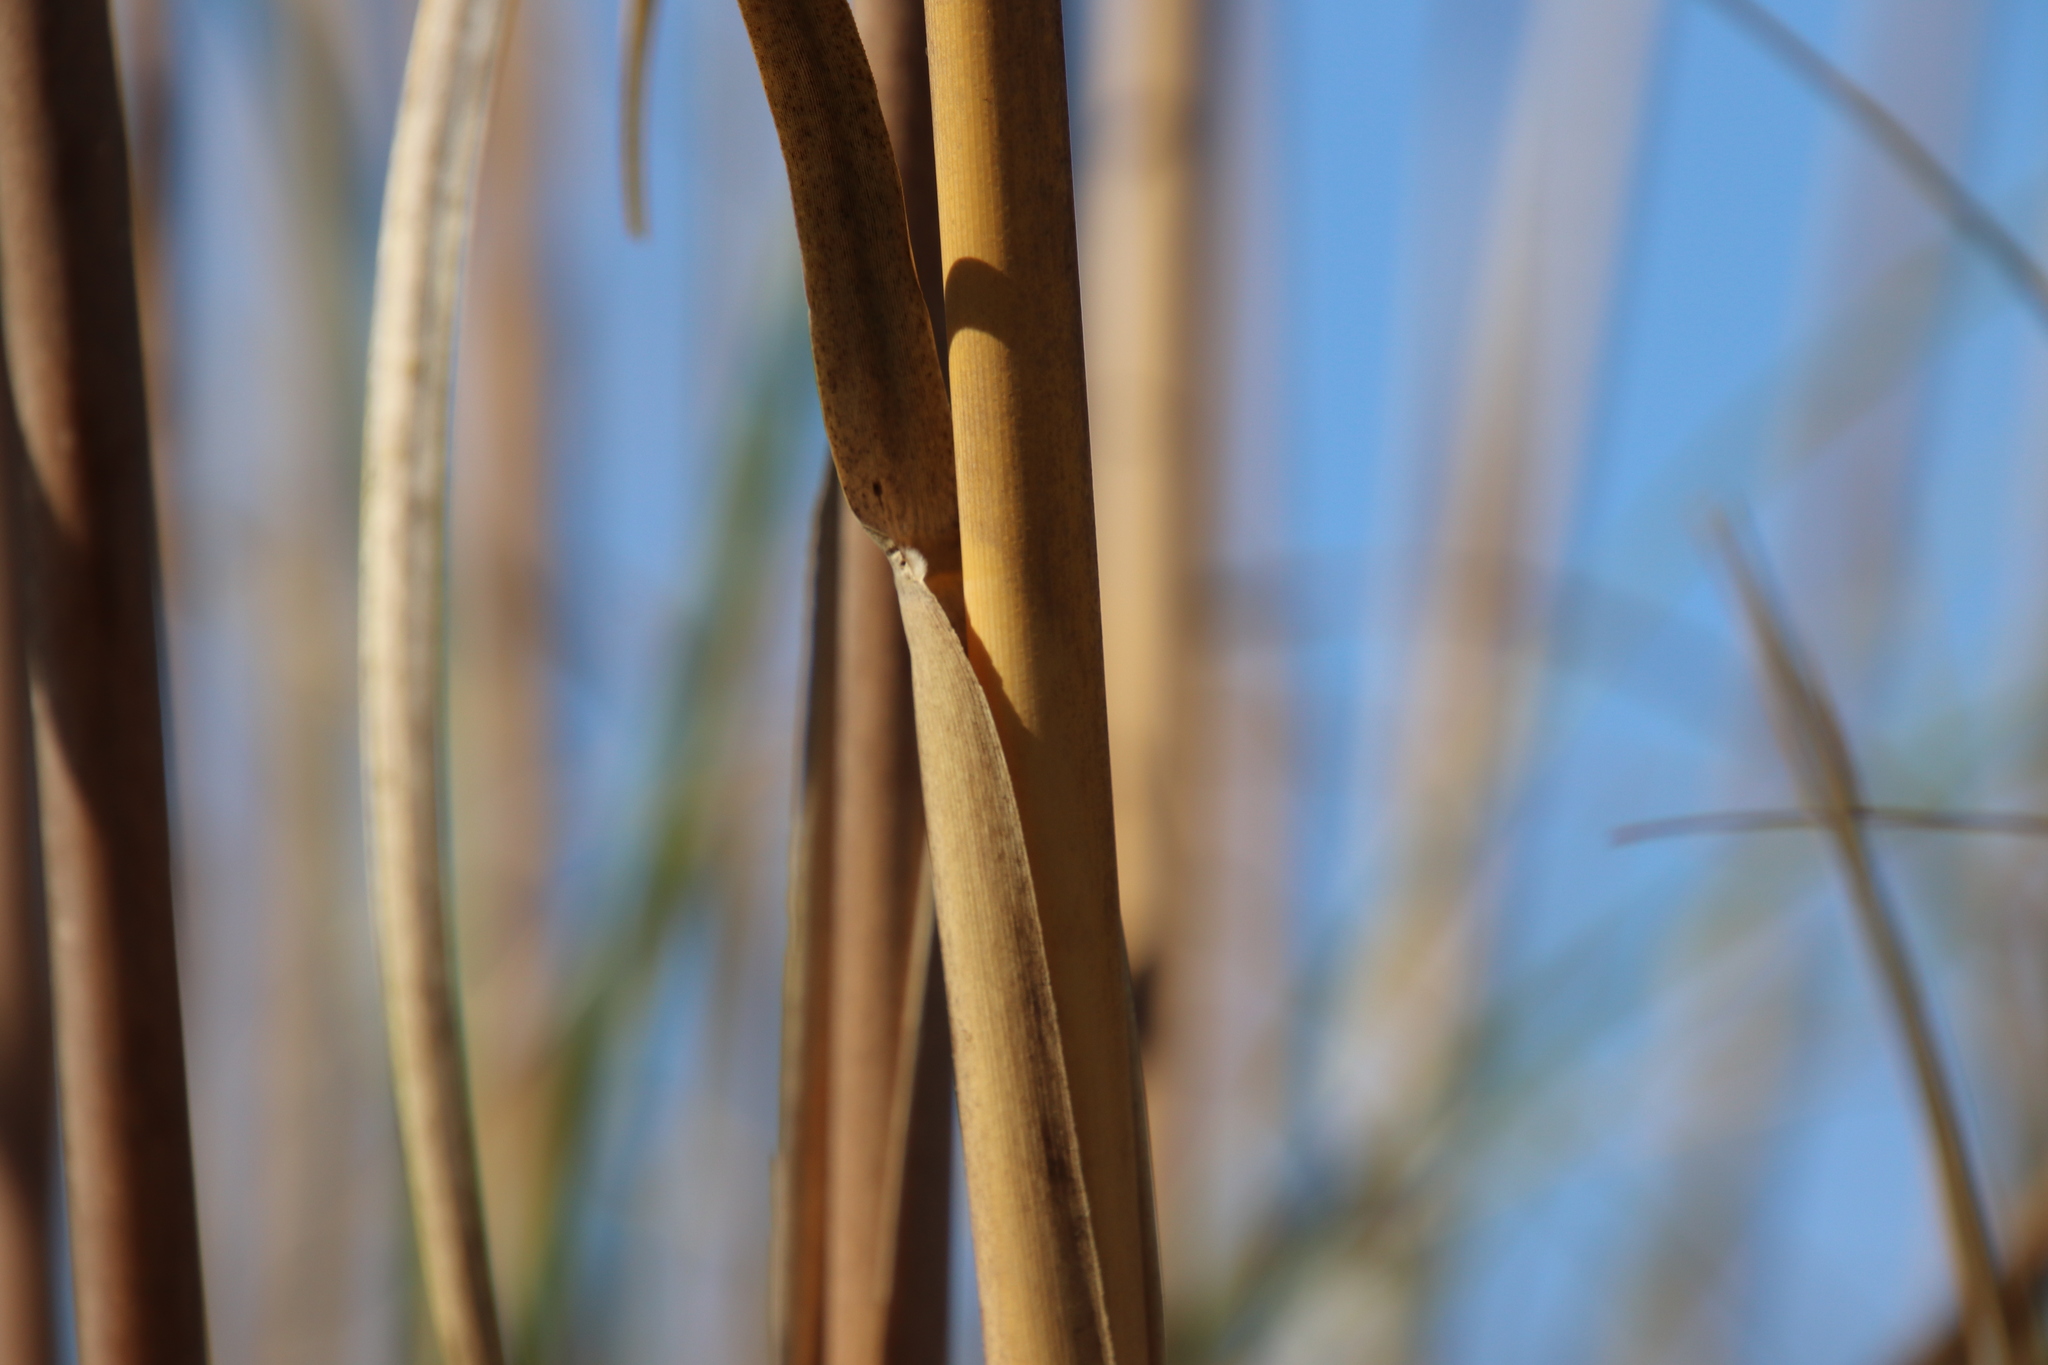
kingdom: Plantae
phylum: Tracheophyta
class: Liliopsida
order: Poales
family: Poaceae
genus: Cortaderia
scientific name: Cortaderia selloana
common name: Uruguayan pampas grass
